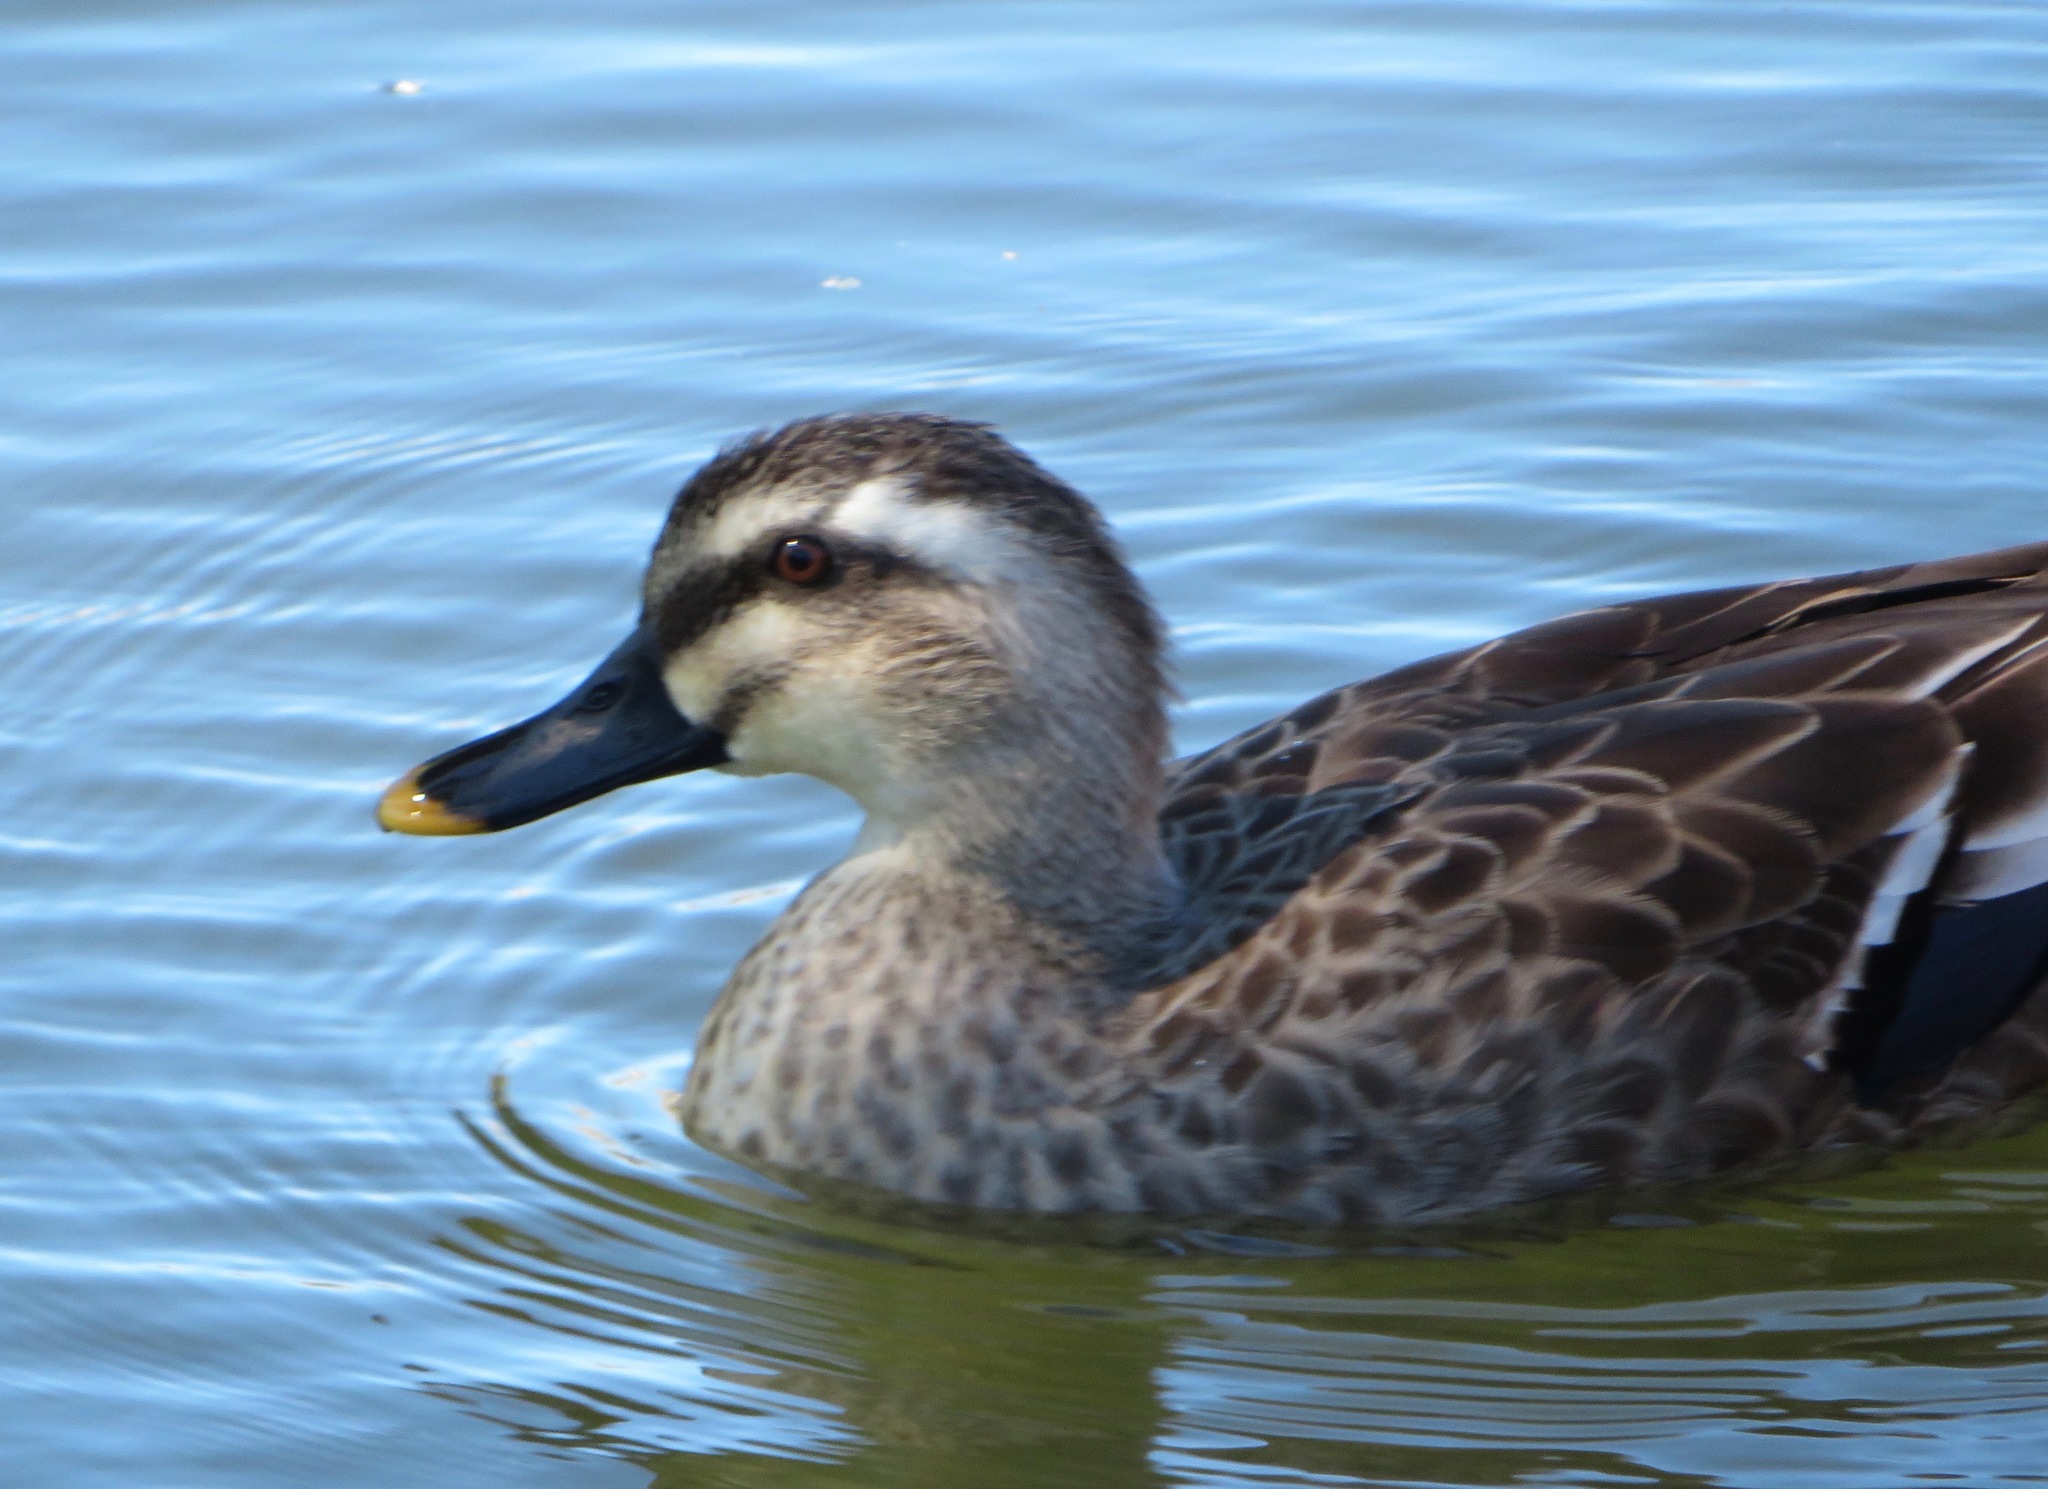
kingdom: Animalia
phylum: Chordata
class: Aves
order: Anseriformes
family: Anatidae
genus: Anas
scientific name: Anas zonorhyncha
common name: Eastern spot-billed duck
